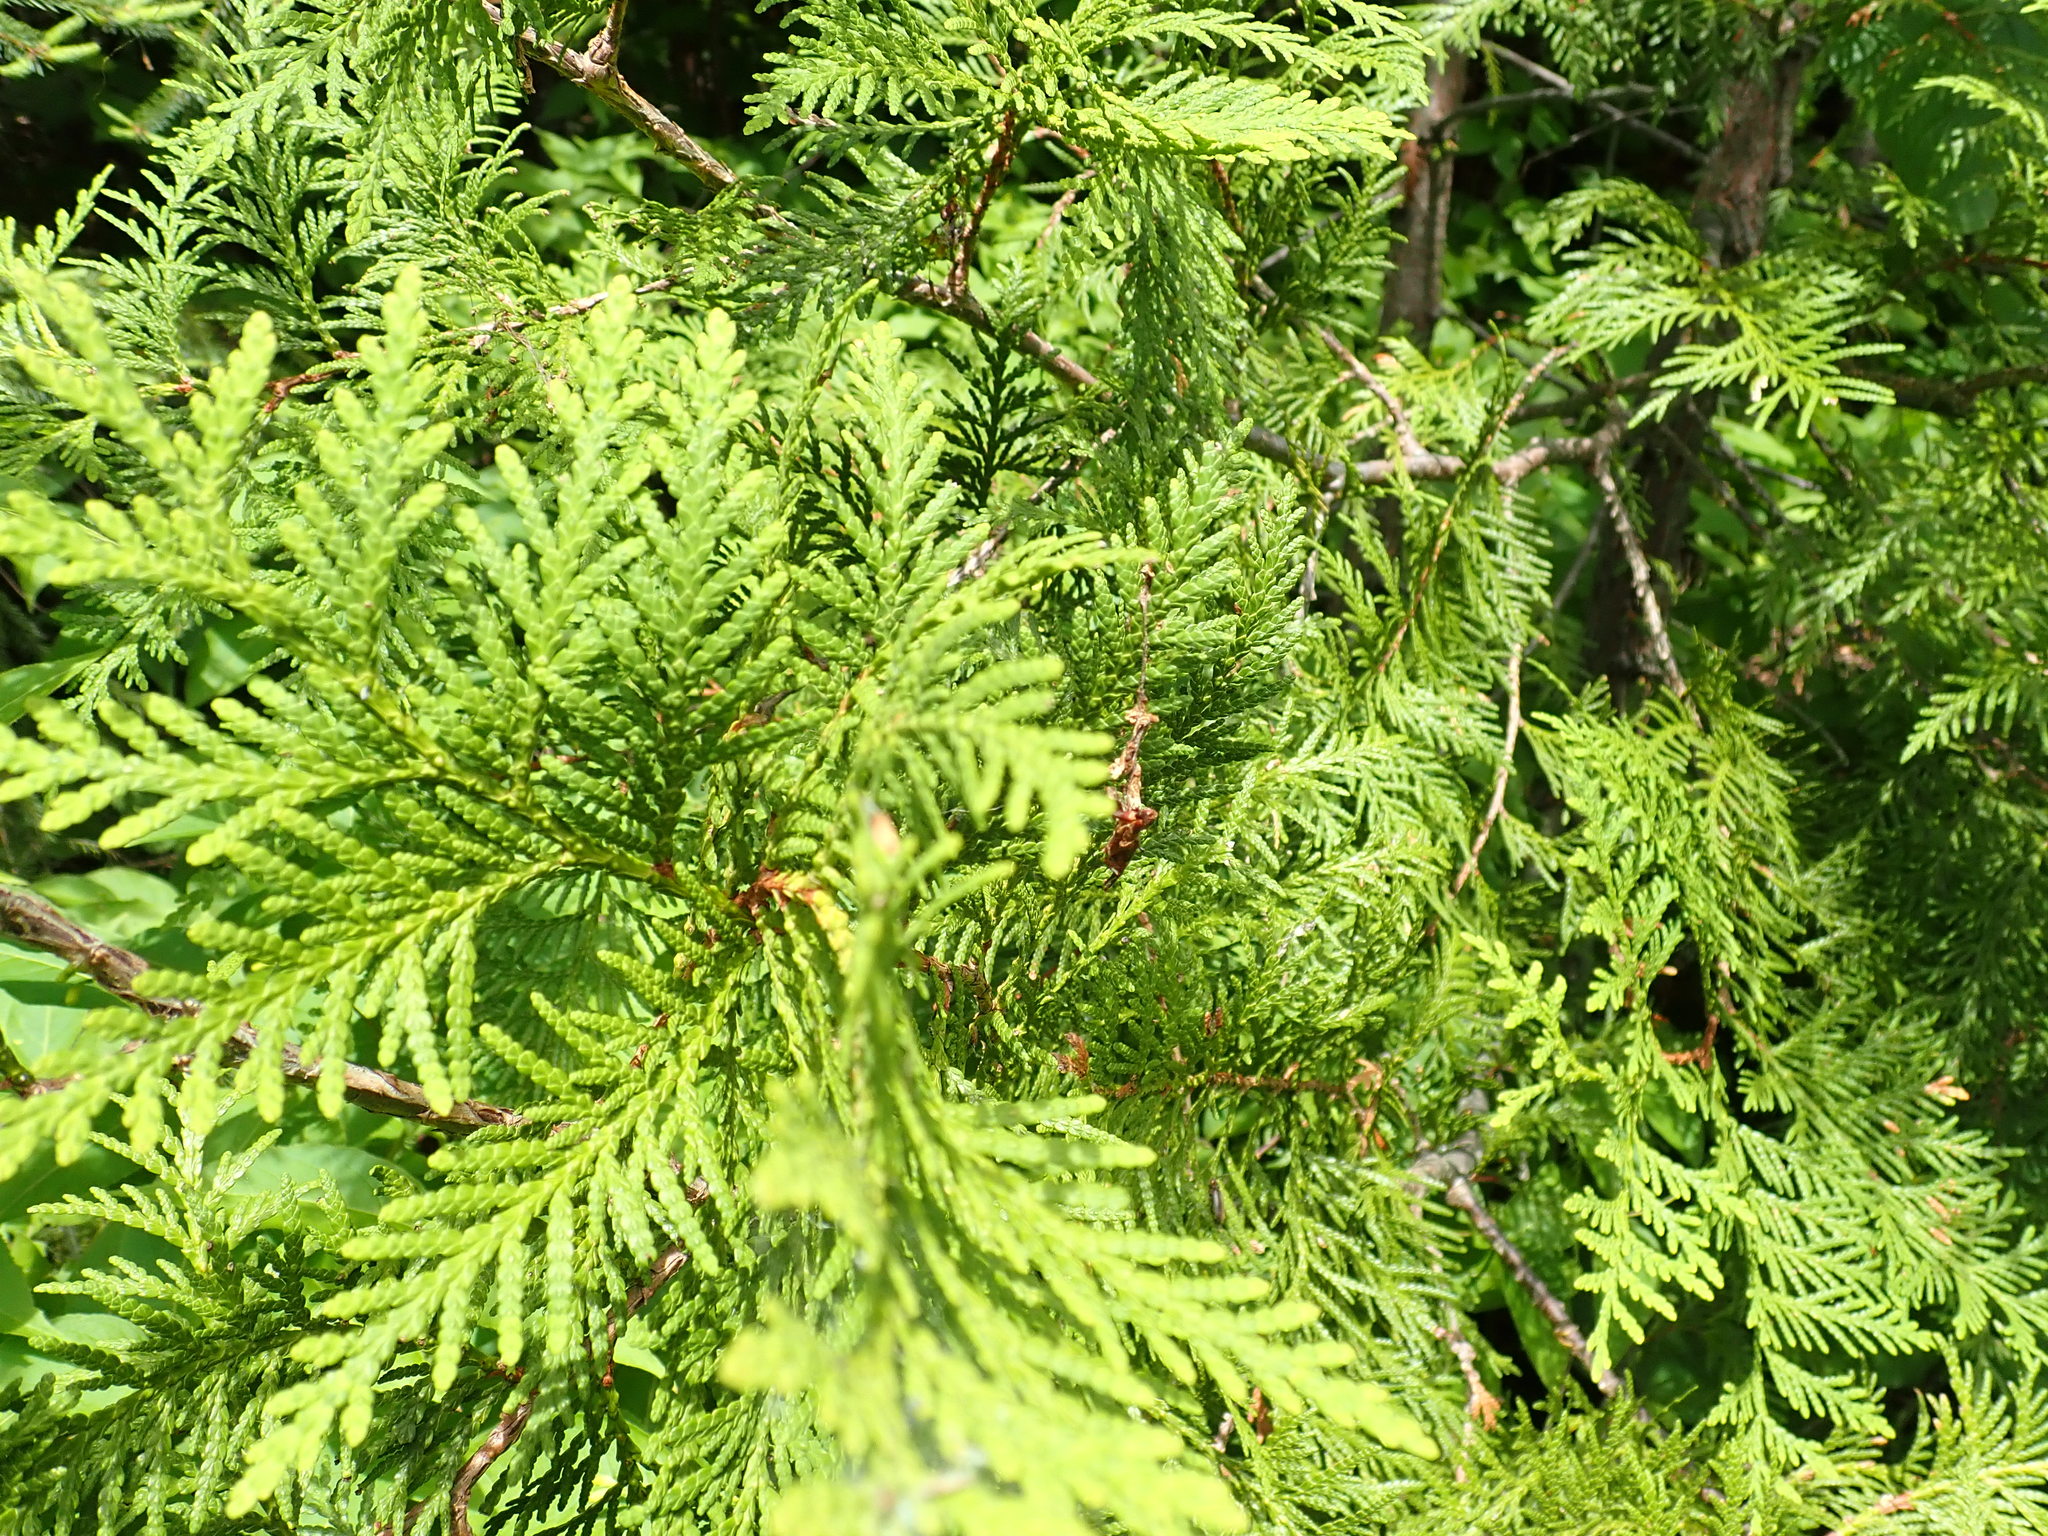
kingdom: Plantae
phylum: Tracheophyta
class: Pinopsida
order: Pinales
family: Cupressaceae
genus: Thuja
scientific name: Thuja occidentalis
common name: Northern white-cedar
